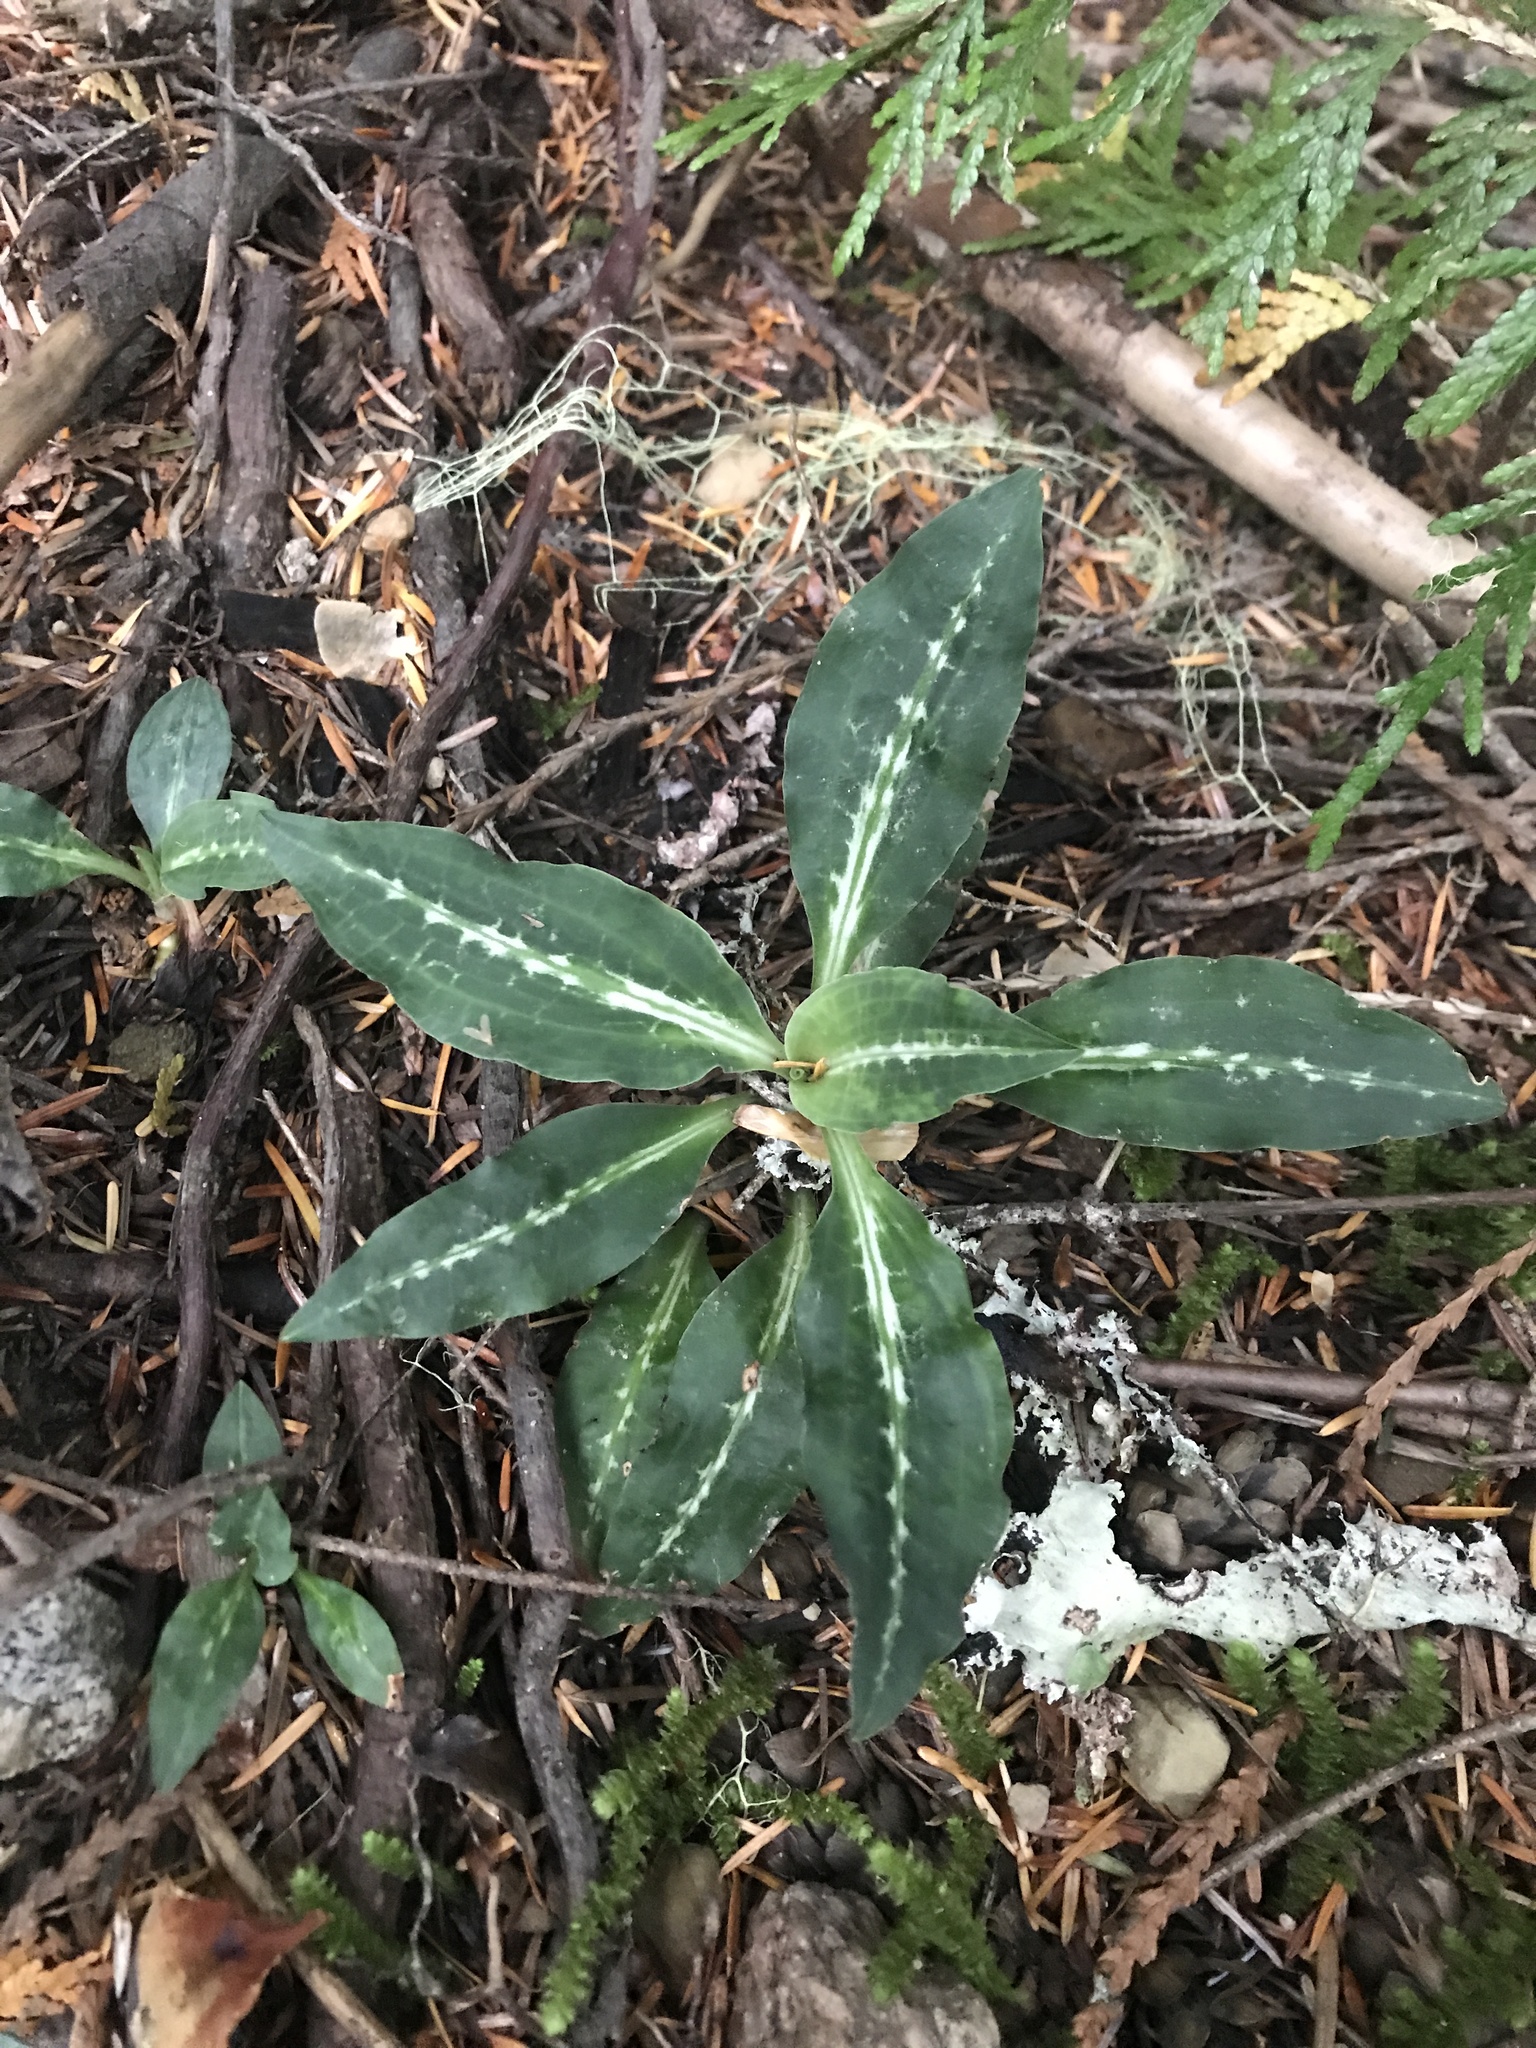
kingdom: Plantae
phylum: Tracheophyta
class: Liliopsida
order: Asparagales
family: Orchidaceae
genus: Goodyera
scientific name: Goodyera oblongifolia
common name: Giant rattlesnake-plantain
